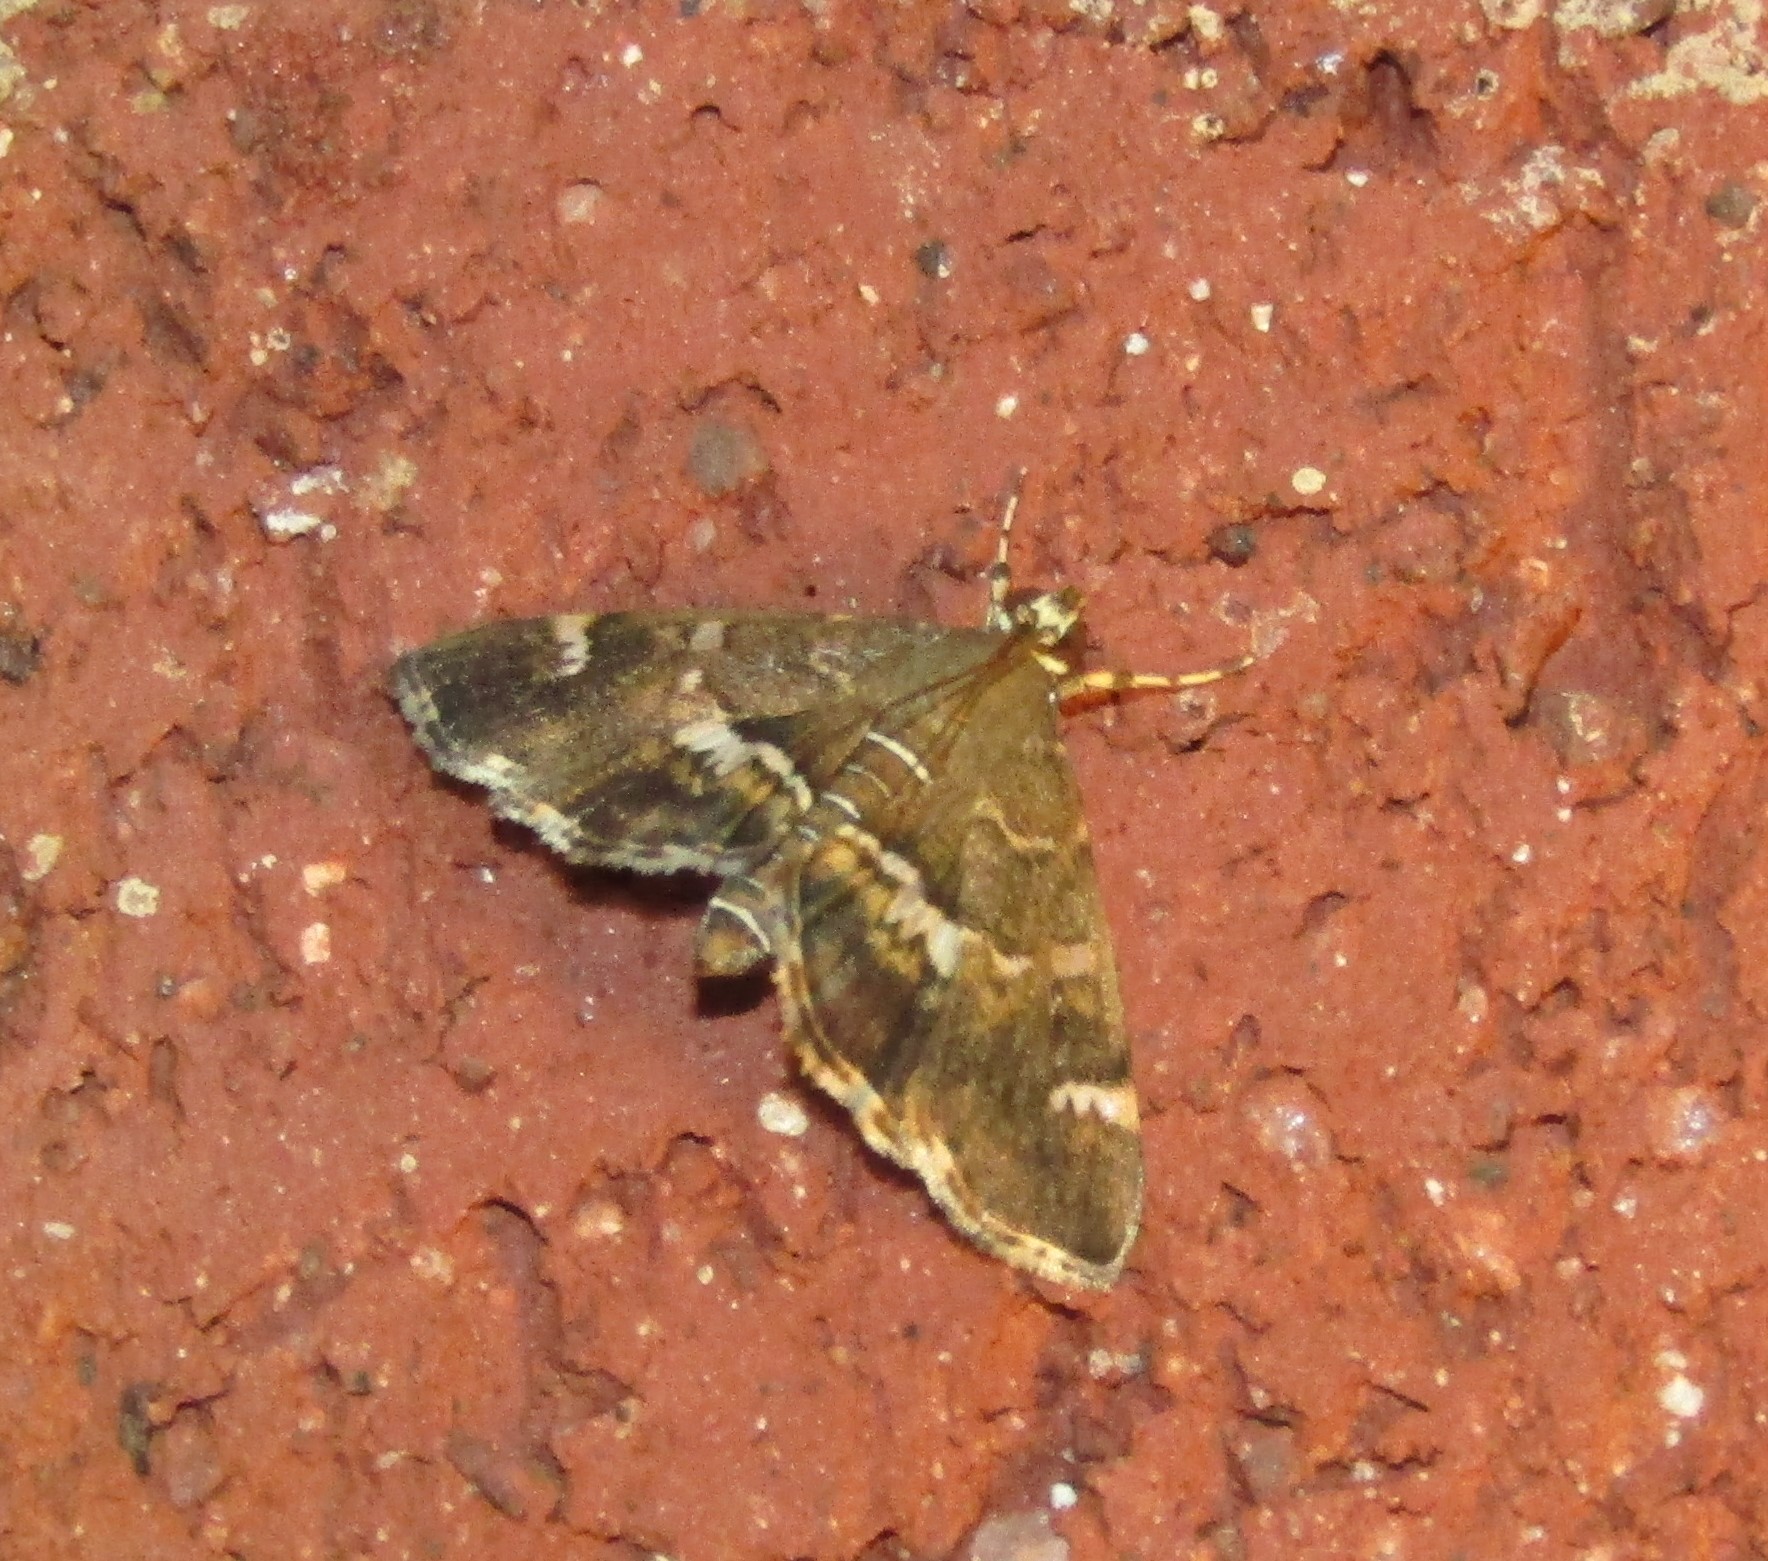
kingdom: Animalia
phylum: Arthropoda
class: Insecta
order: Lepidoptera
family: Crambidae
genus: Hymenia
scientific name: Hymenia perspectalis
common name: Spotted beet webworm
